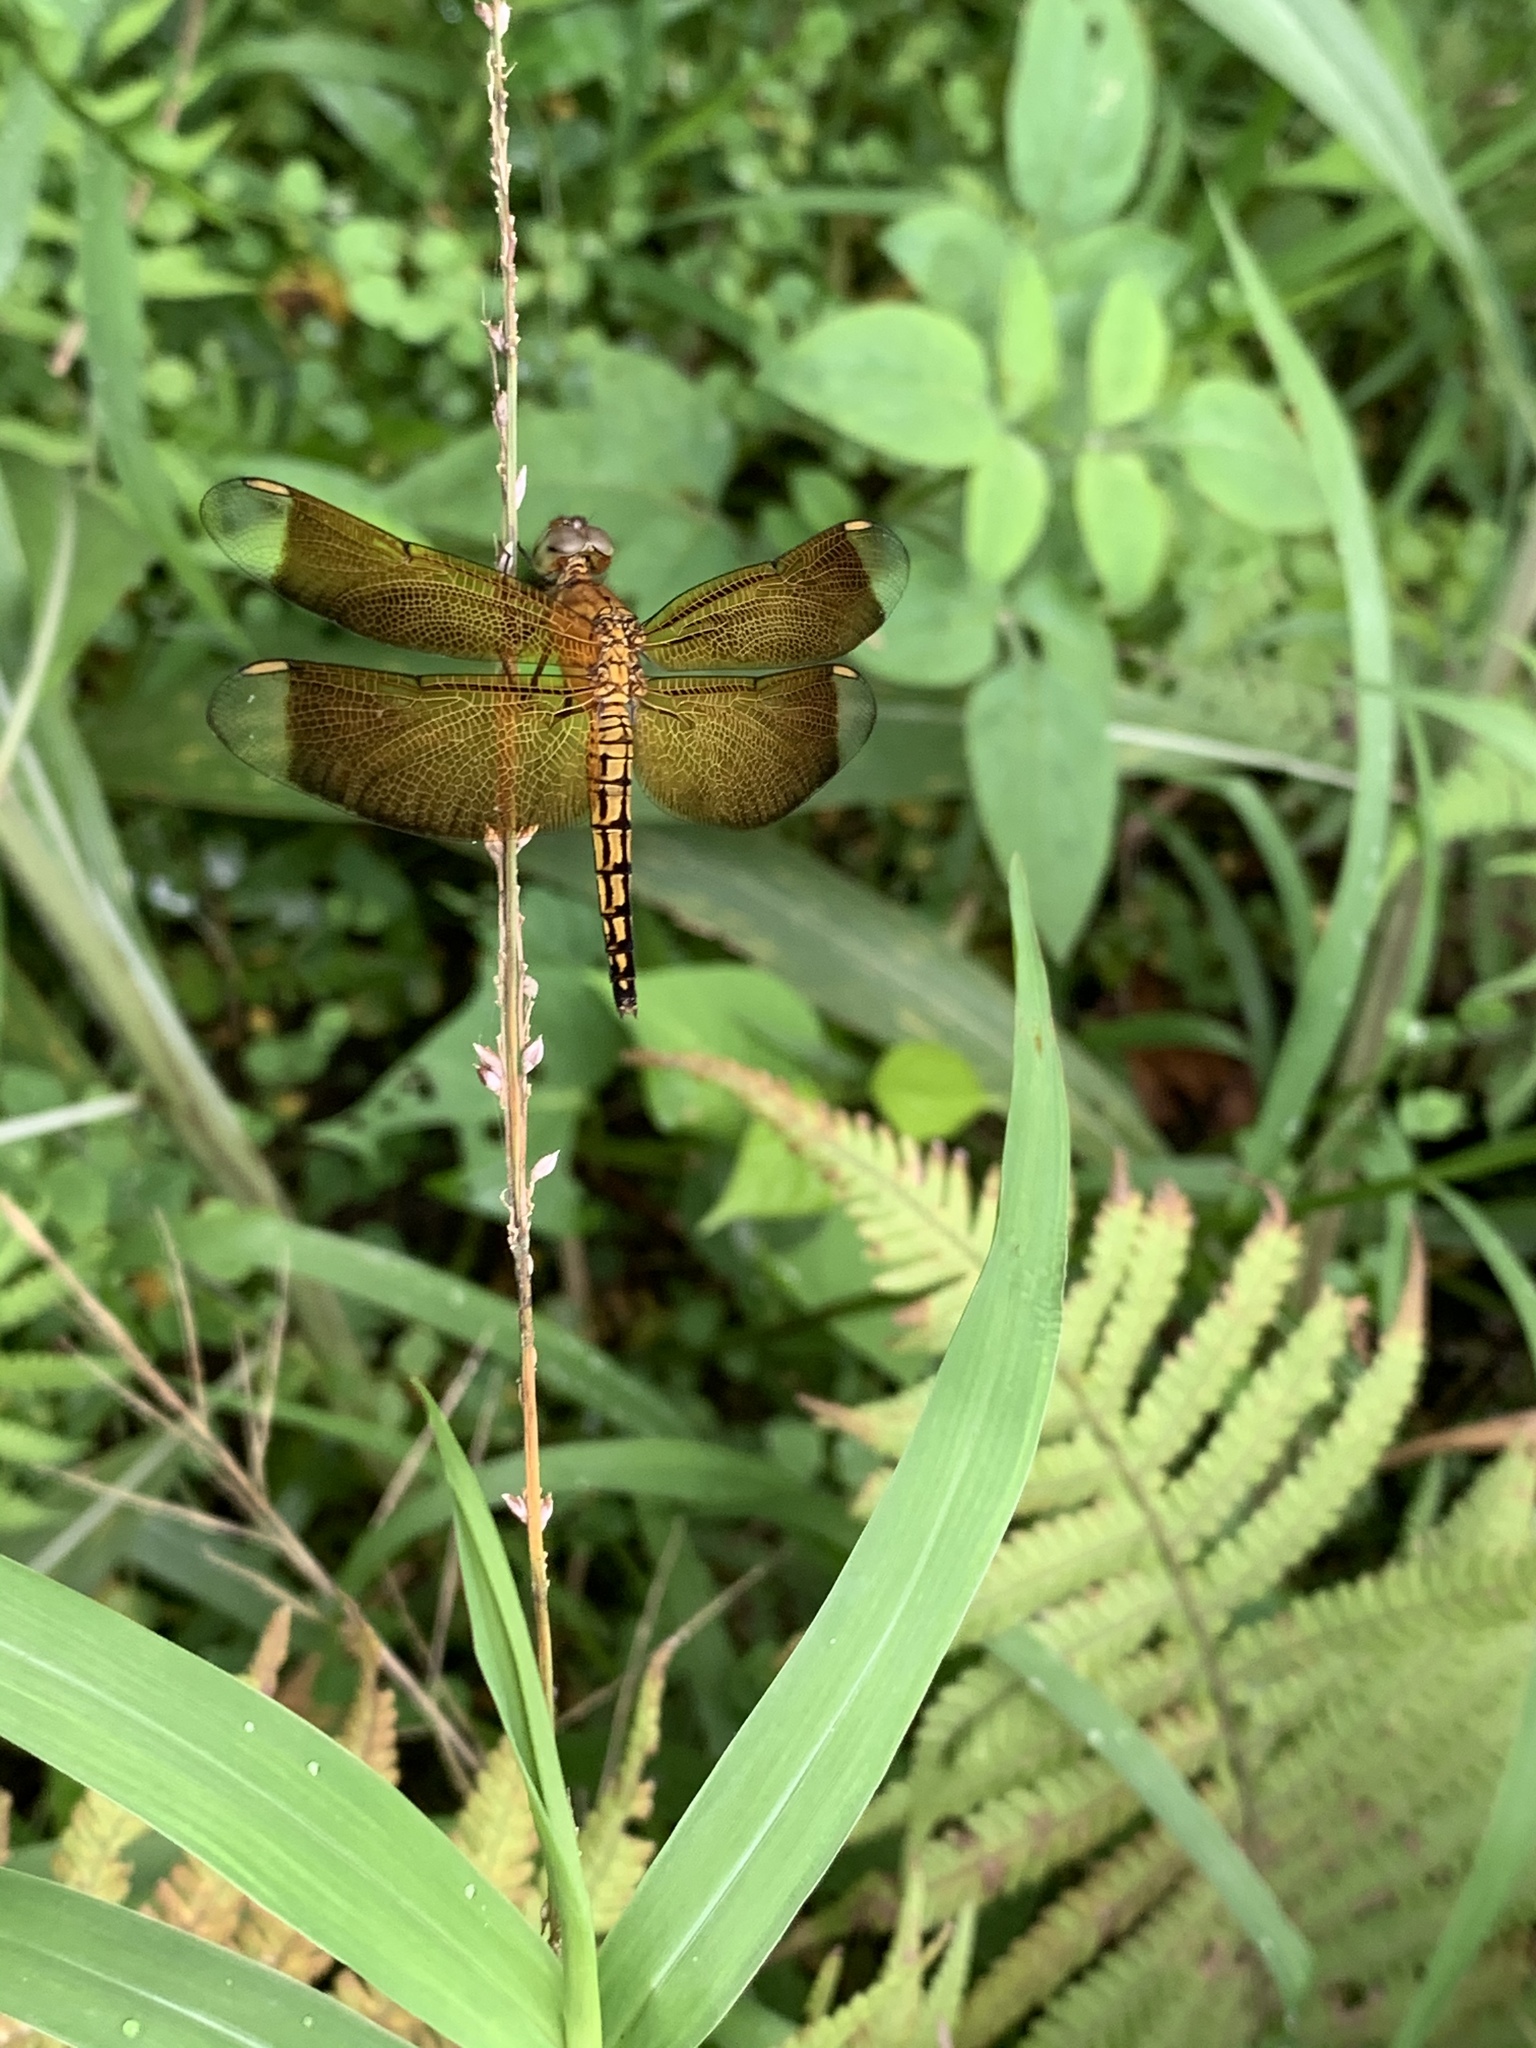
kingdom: Animalia
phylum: Arthropoda
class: Insecta
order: Odonata
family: Libellulidae
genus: Neurothemis
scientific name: Neurothemis taiwanensis
